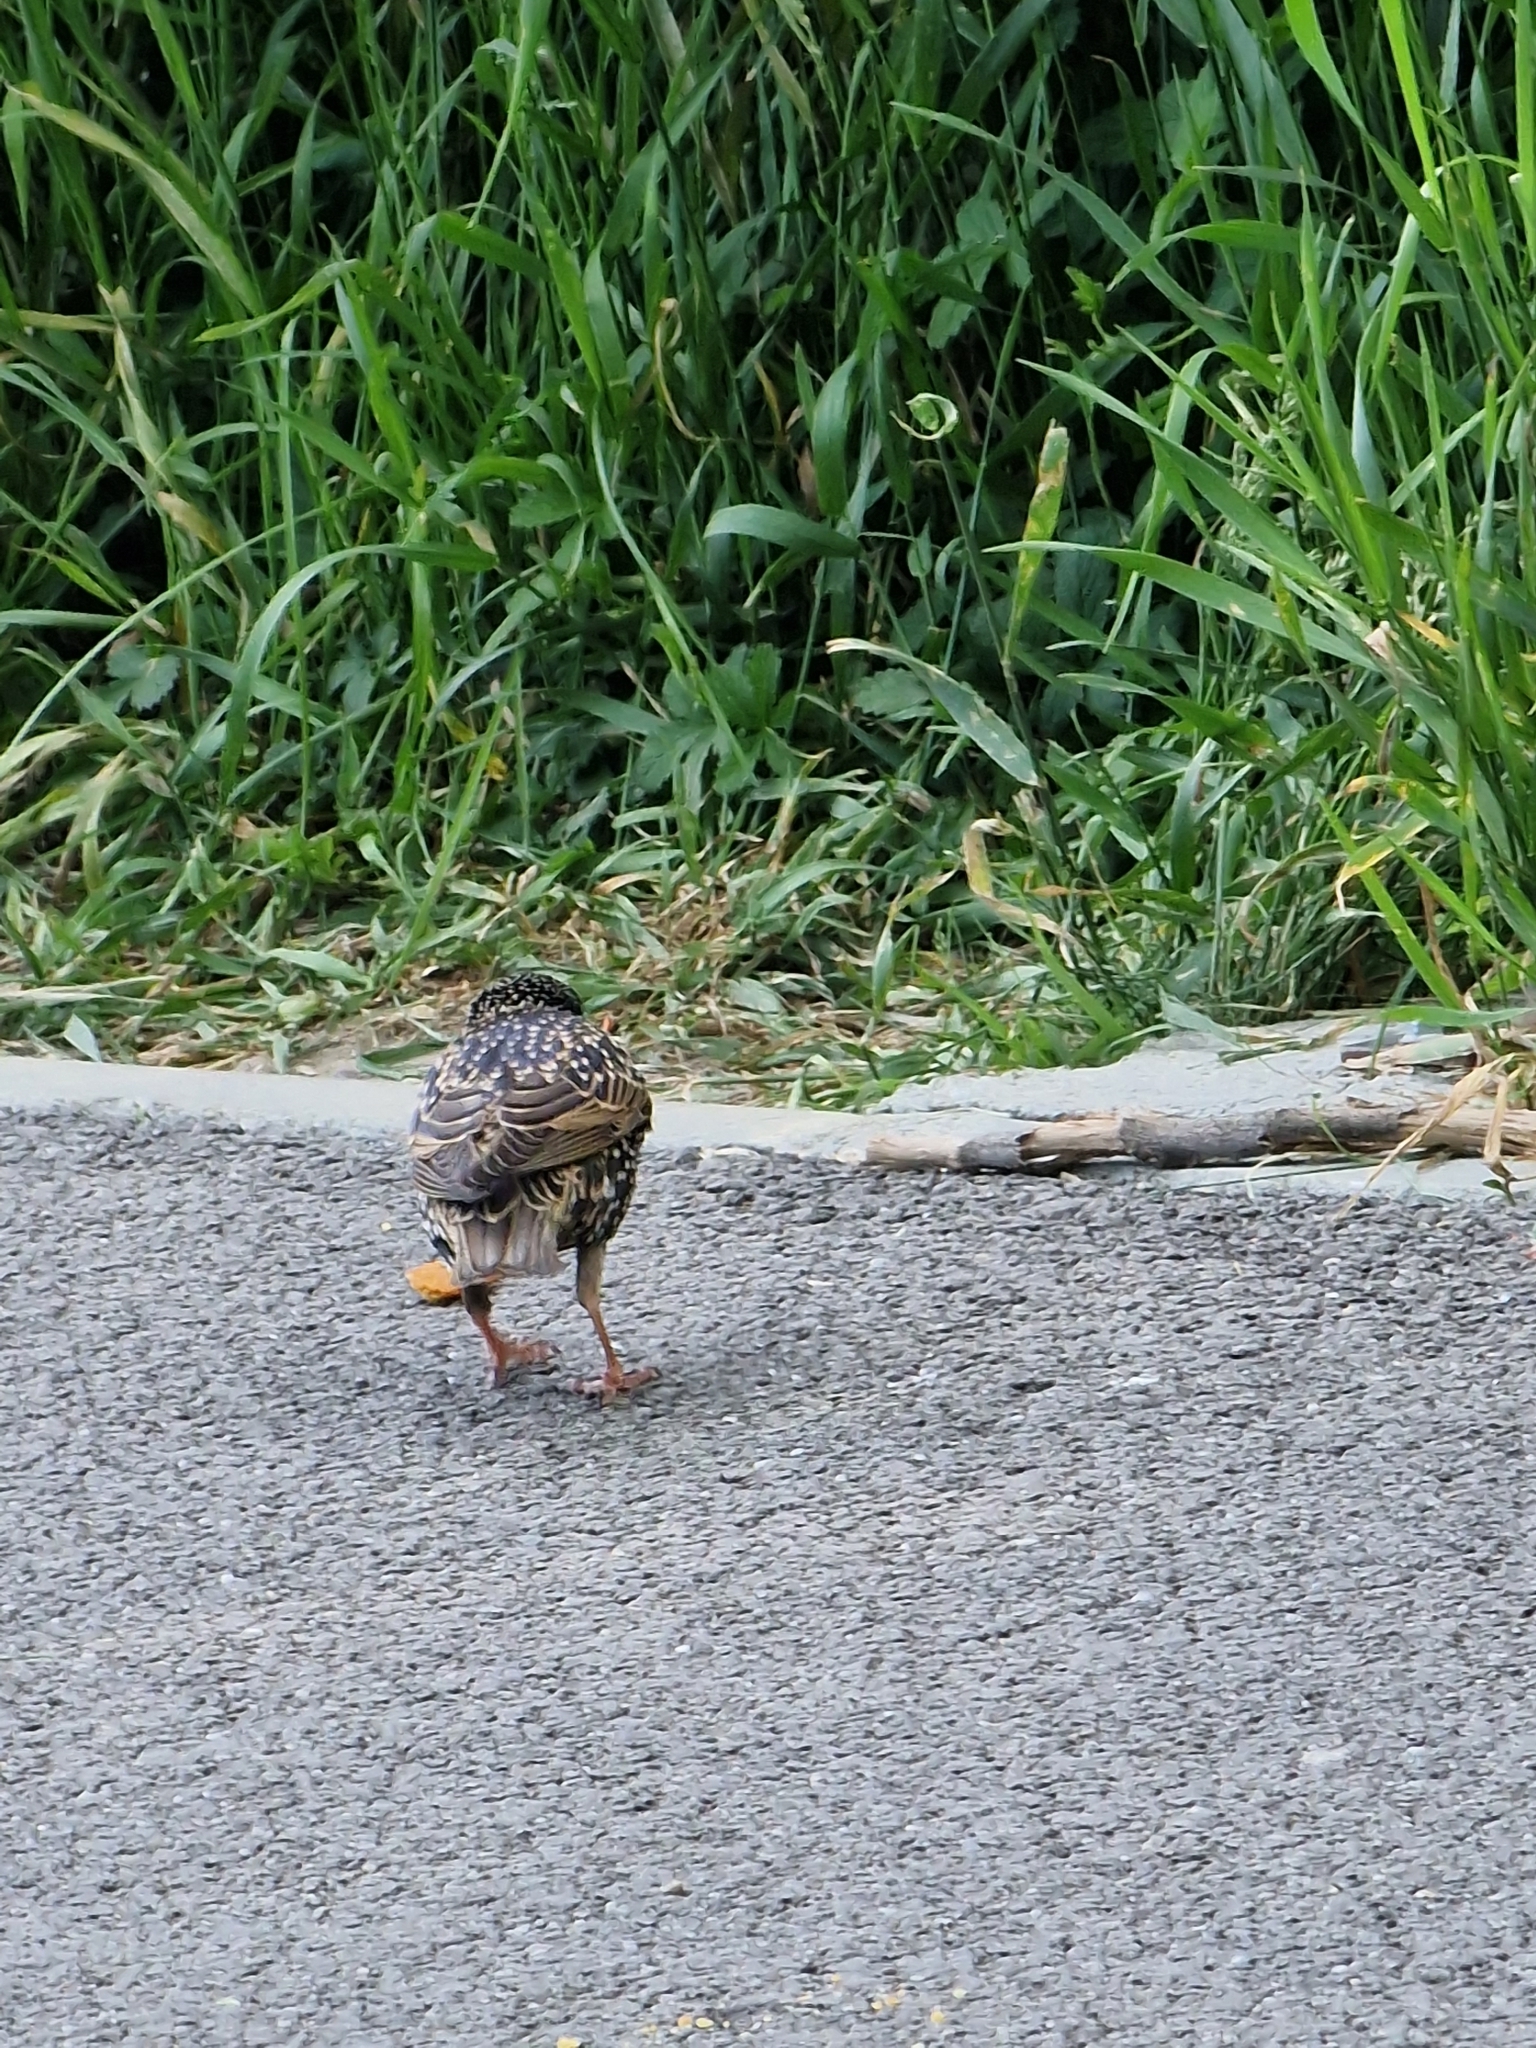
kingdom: Animalia
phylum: Chordata
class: Aves
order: Passeriformes
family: Sturnidae
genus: Sturnus
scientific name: Sturnus vulgaris
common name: Common starling
